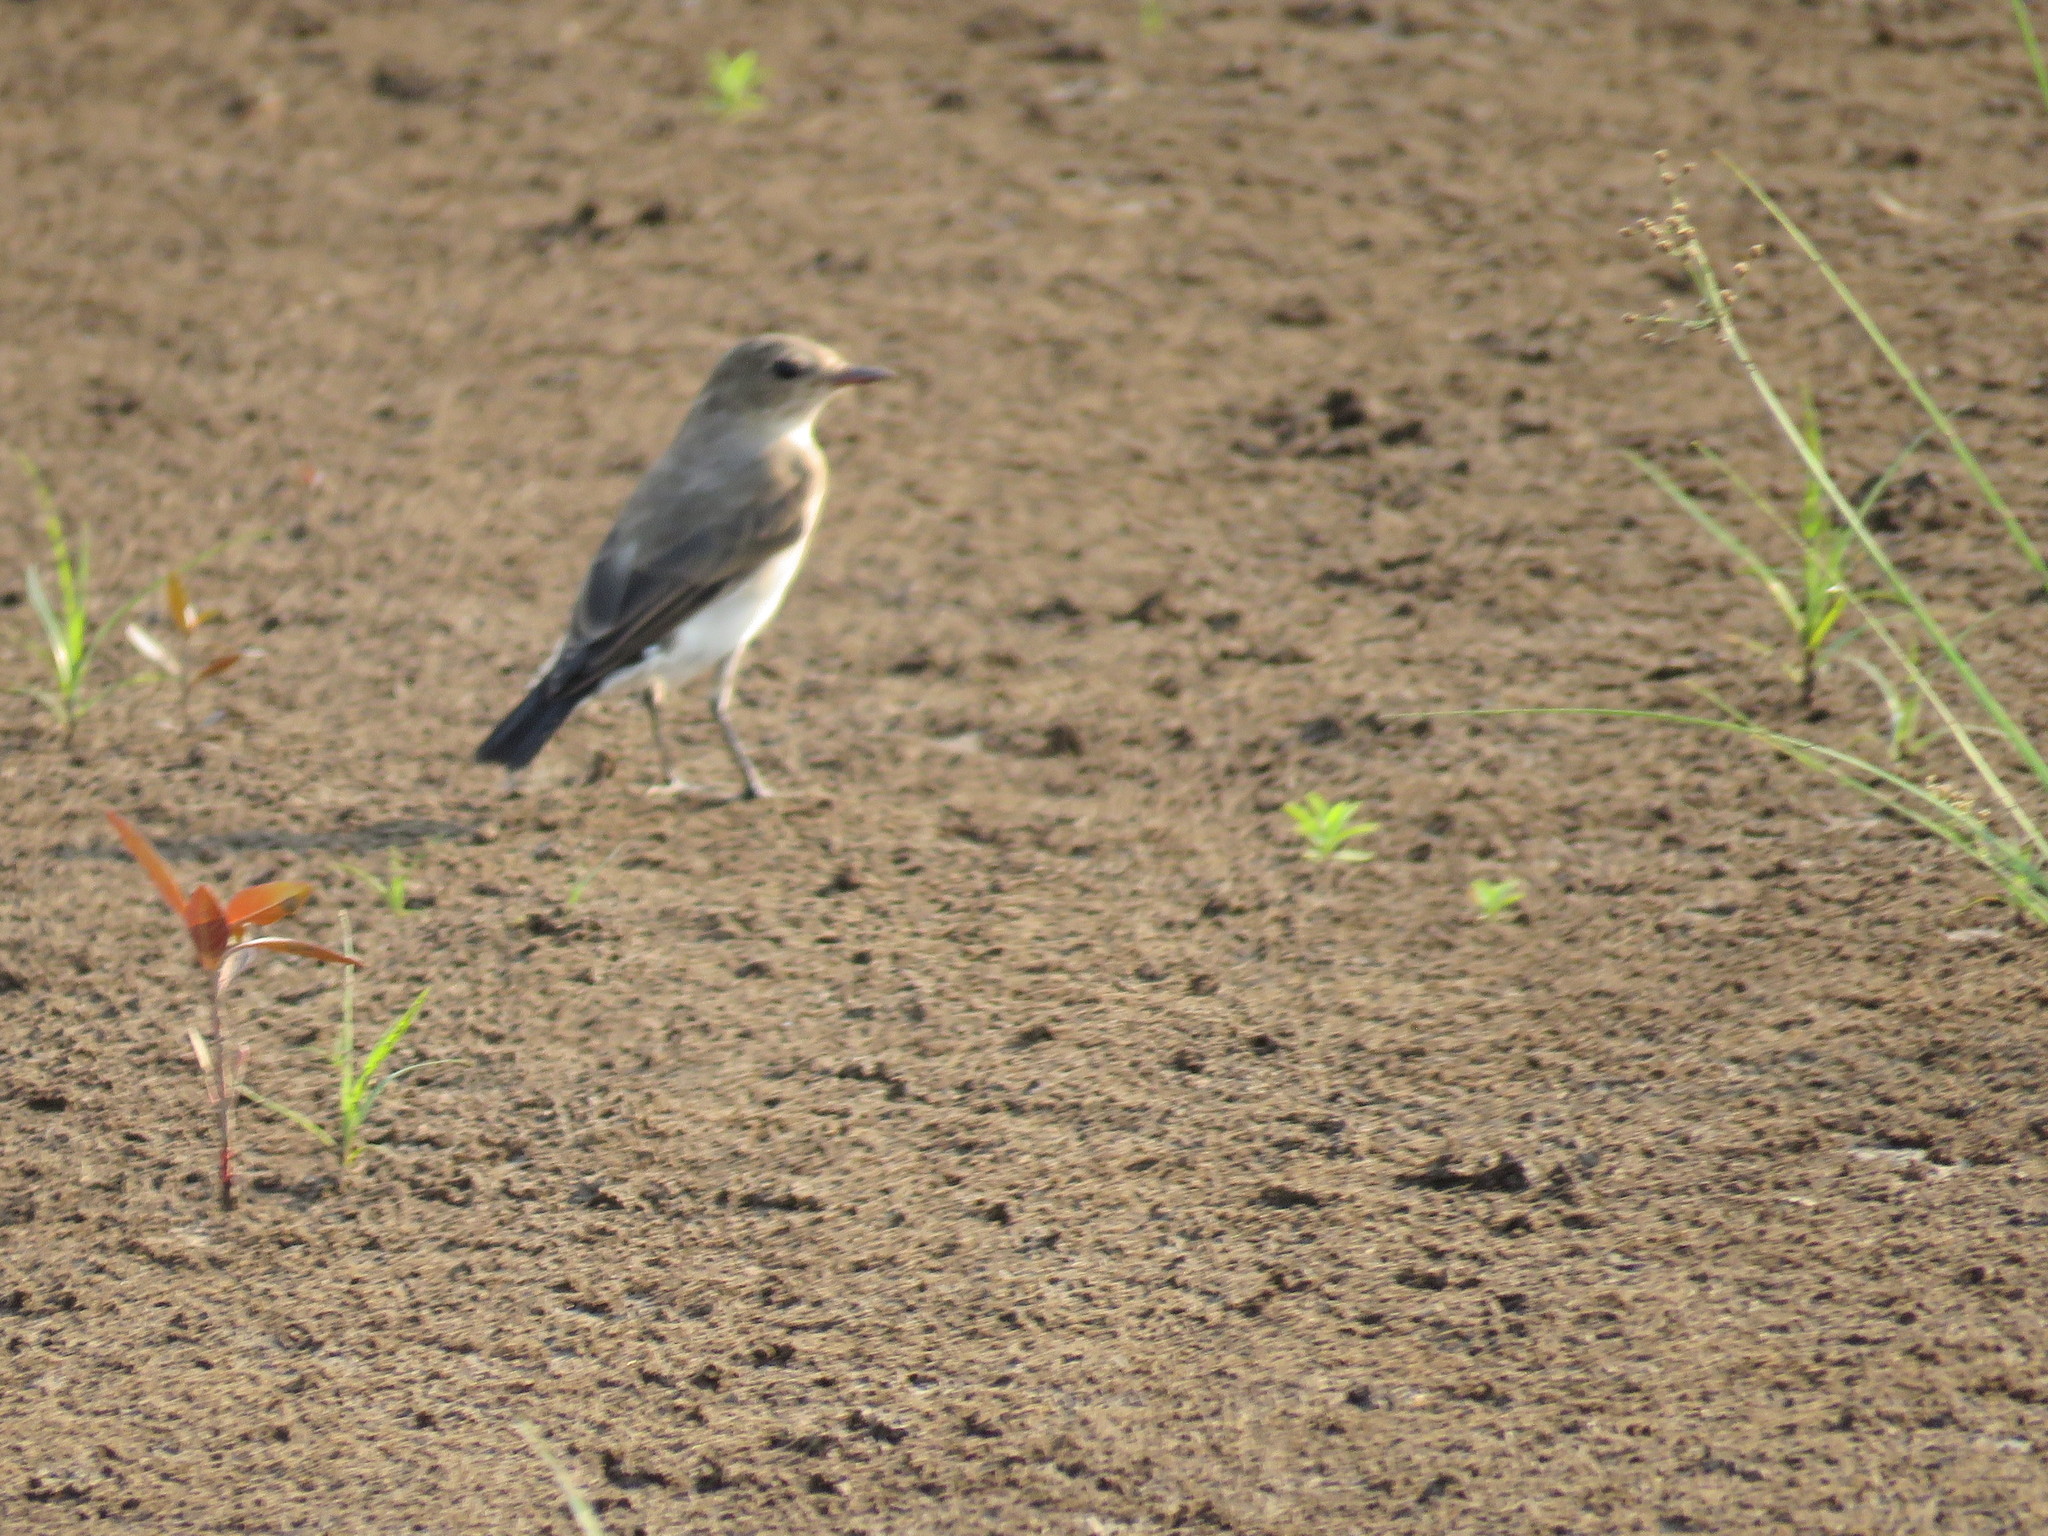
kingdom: Animalia
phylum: Chordata
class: Aves
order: Passeriformes
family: Tyrannidae
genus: Muscisaxicola
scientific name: Muscisaxicola fluviatilis
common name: Little ground tyrant
